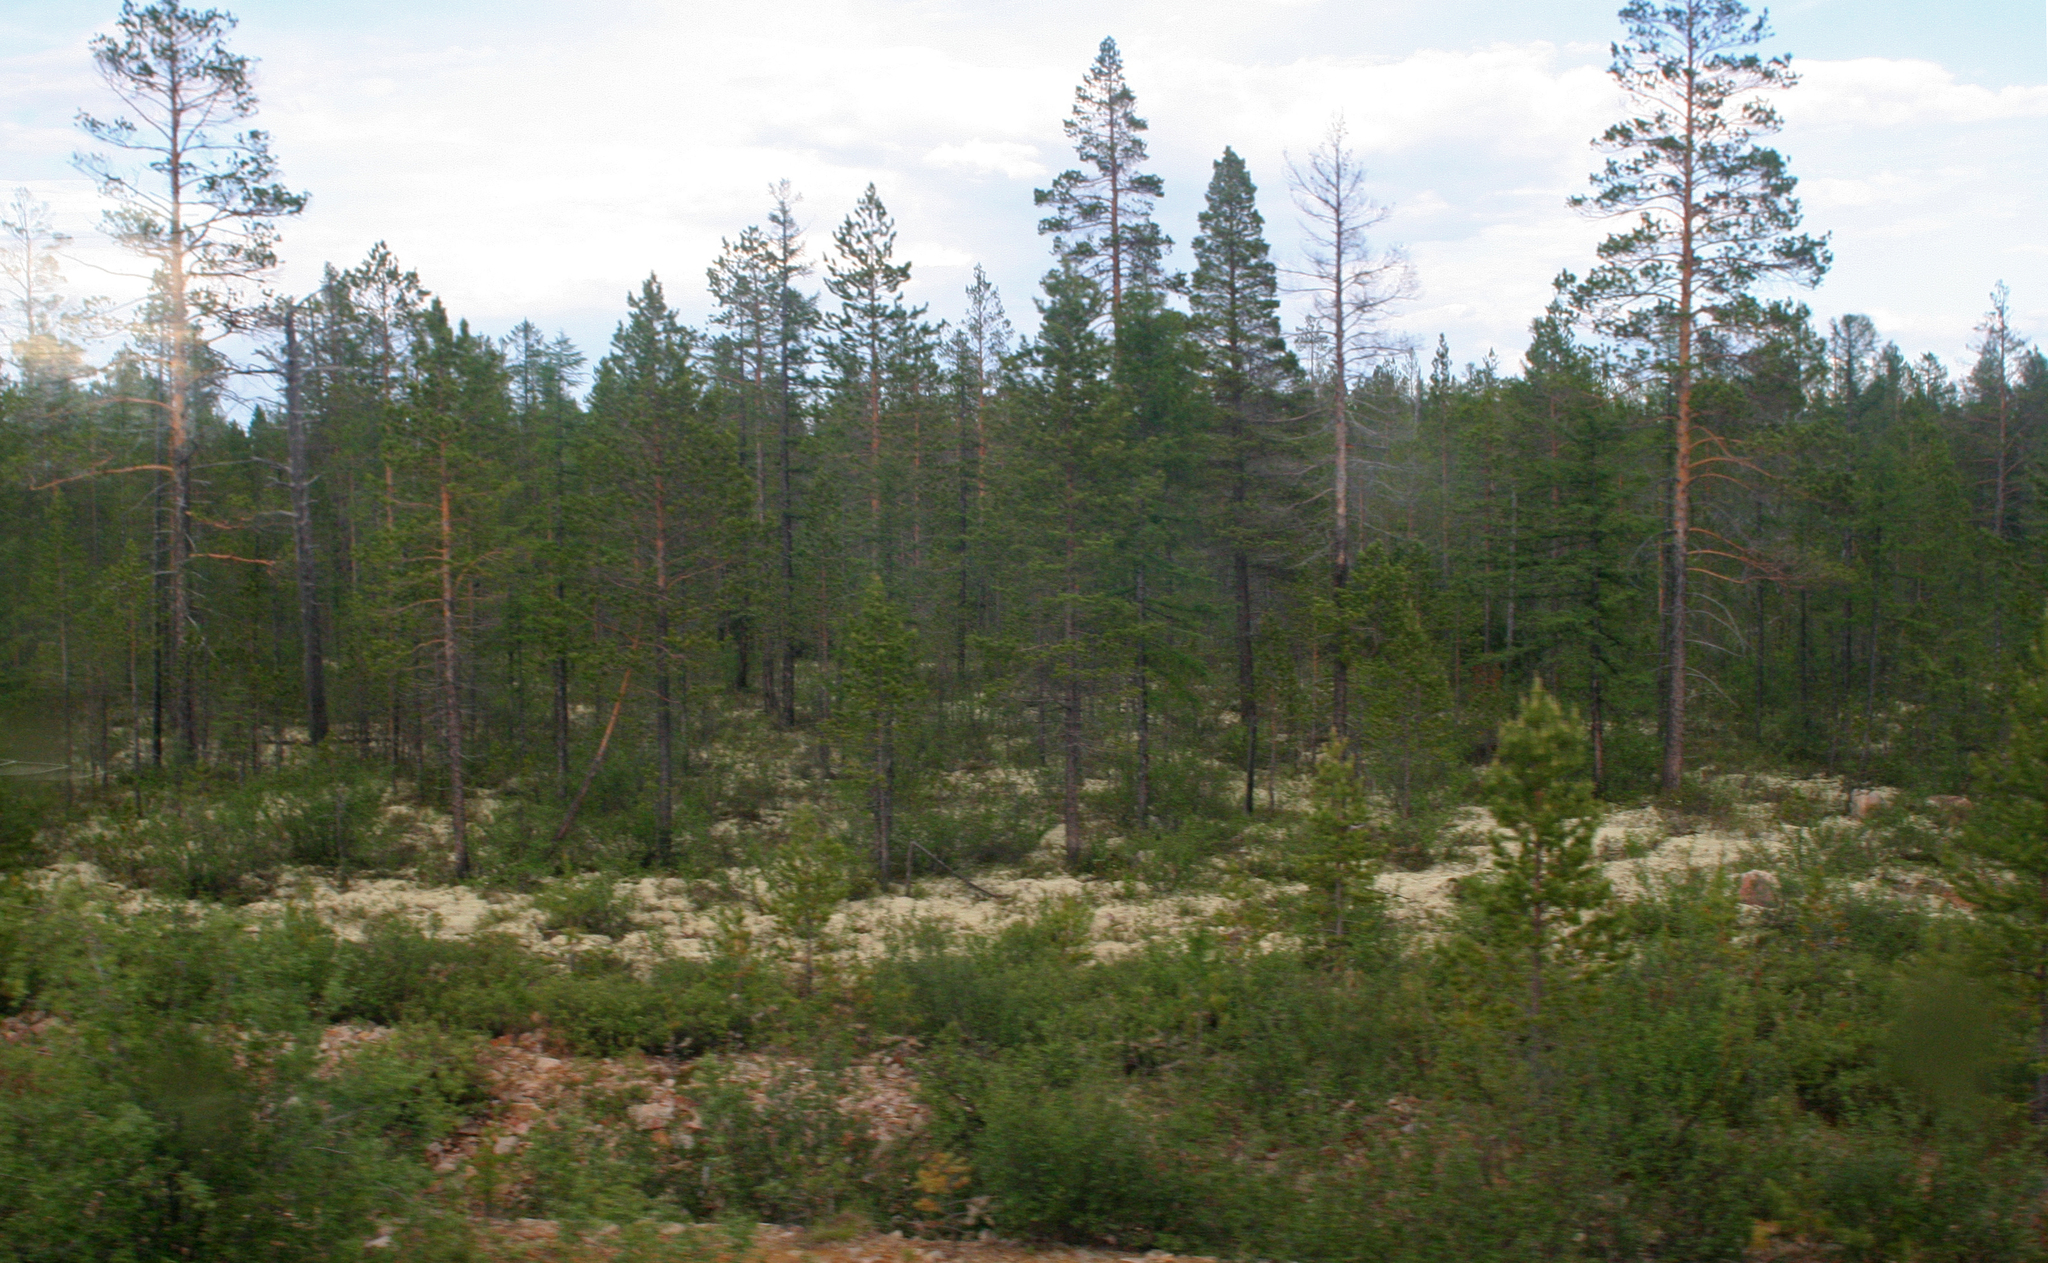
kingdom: Plantae
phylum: Tracheophyta
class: Pinopsida
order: Pinales
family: Pinaceae
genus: Pinus
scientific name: Pinus sylvestris
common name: Scots pine
